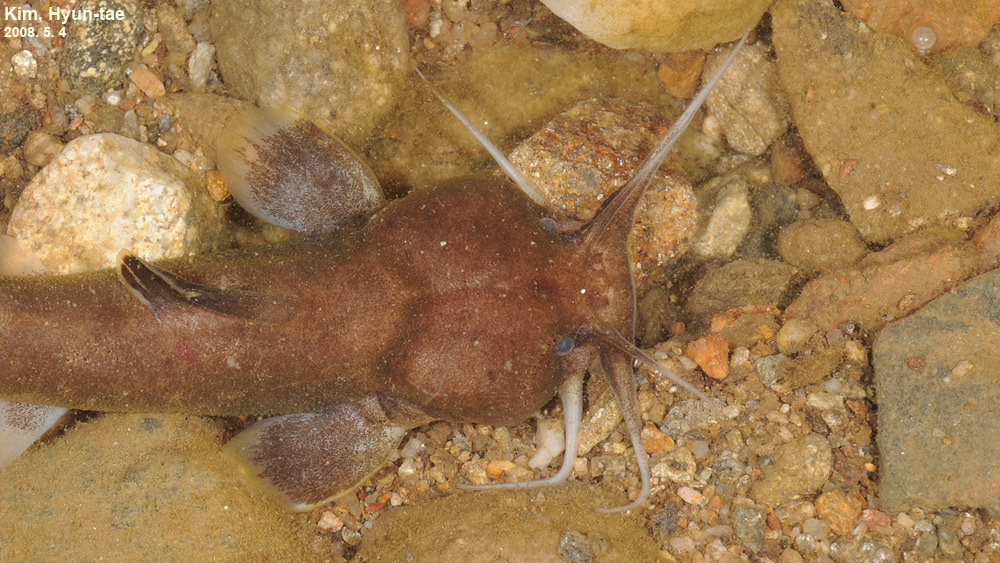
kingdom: Animalia
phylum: Chordata
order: Siluriformes
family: Amblycipitidae
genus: Liobagrus
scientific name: Liobagrus andersoni
